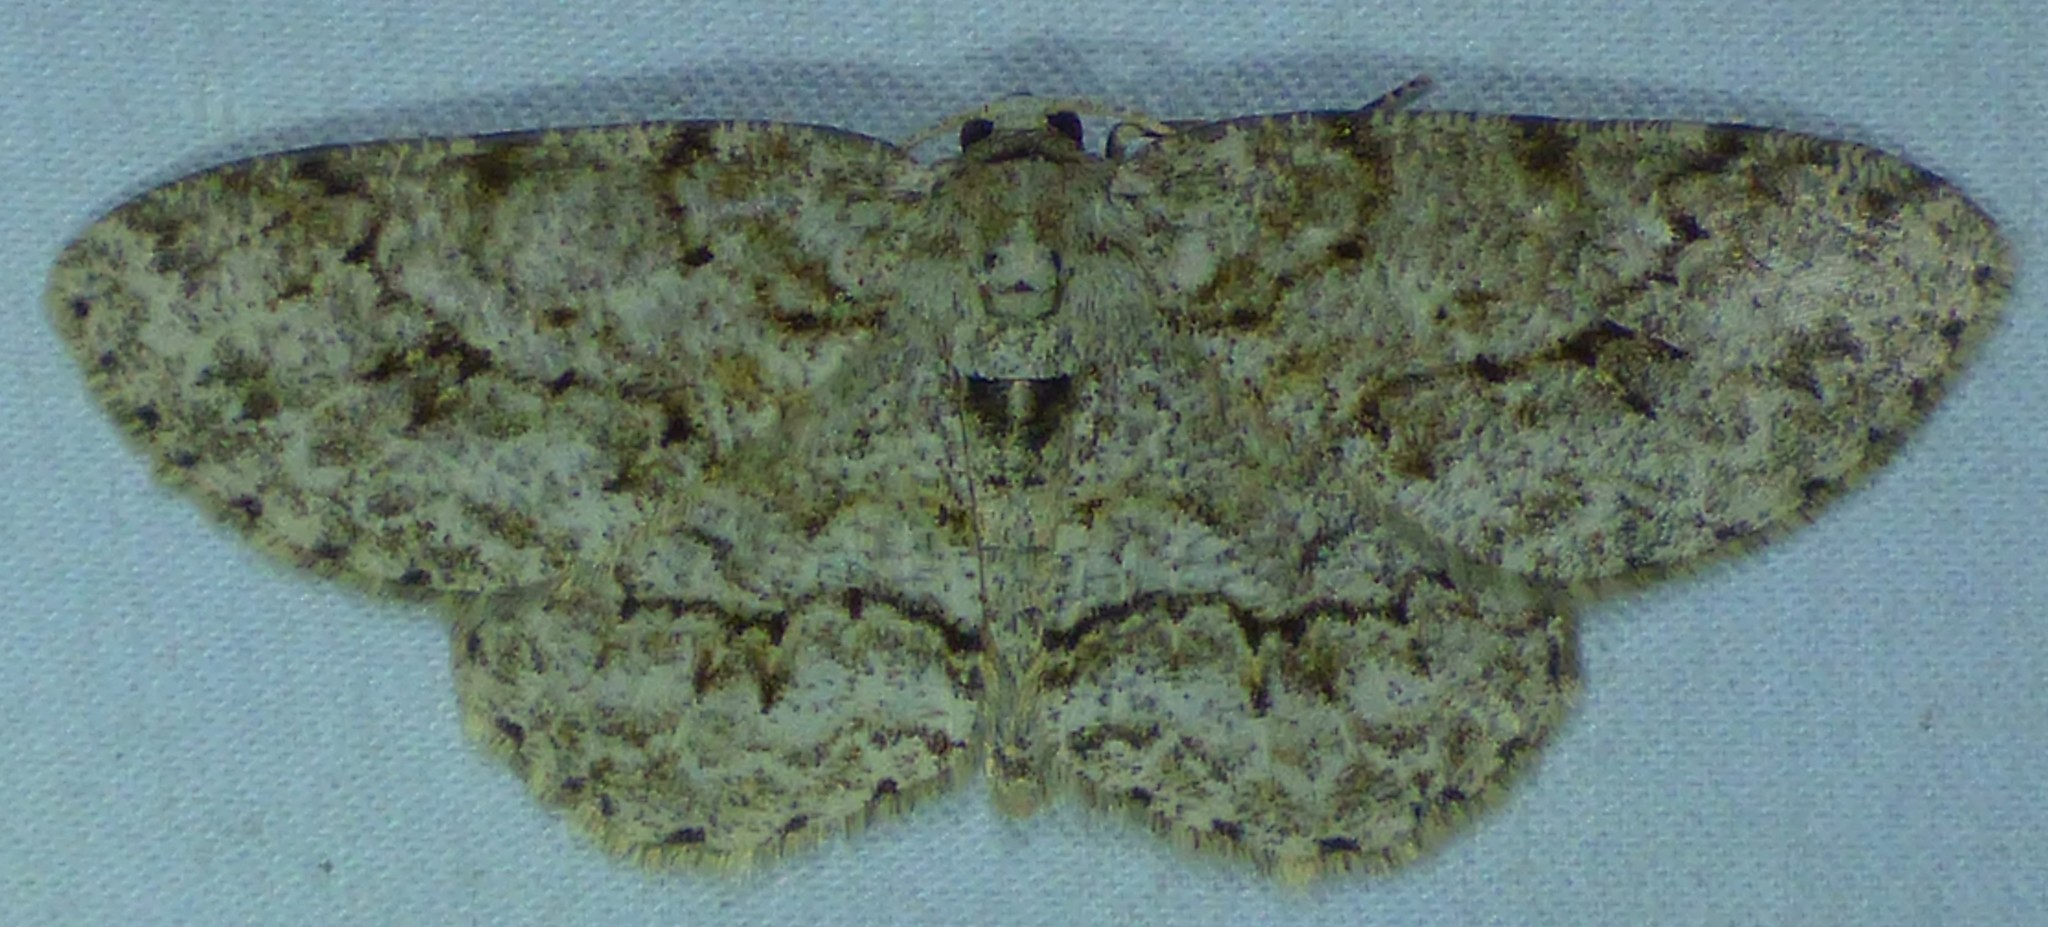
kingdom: Animalia
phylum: Arthropoda
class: Insecta
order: Lepidoptera
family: Geometridae
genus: Ectropis
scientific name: Ectropis crepuscularia
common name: Engrailed
